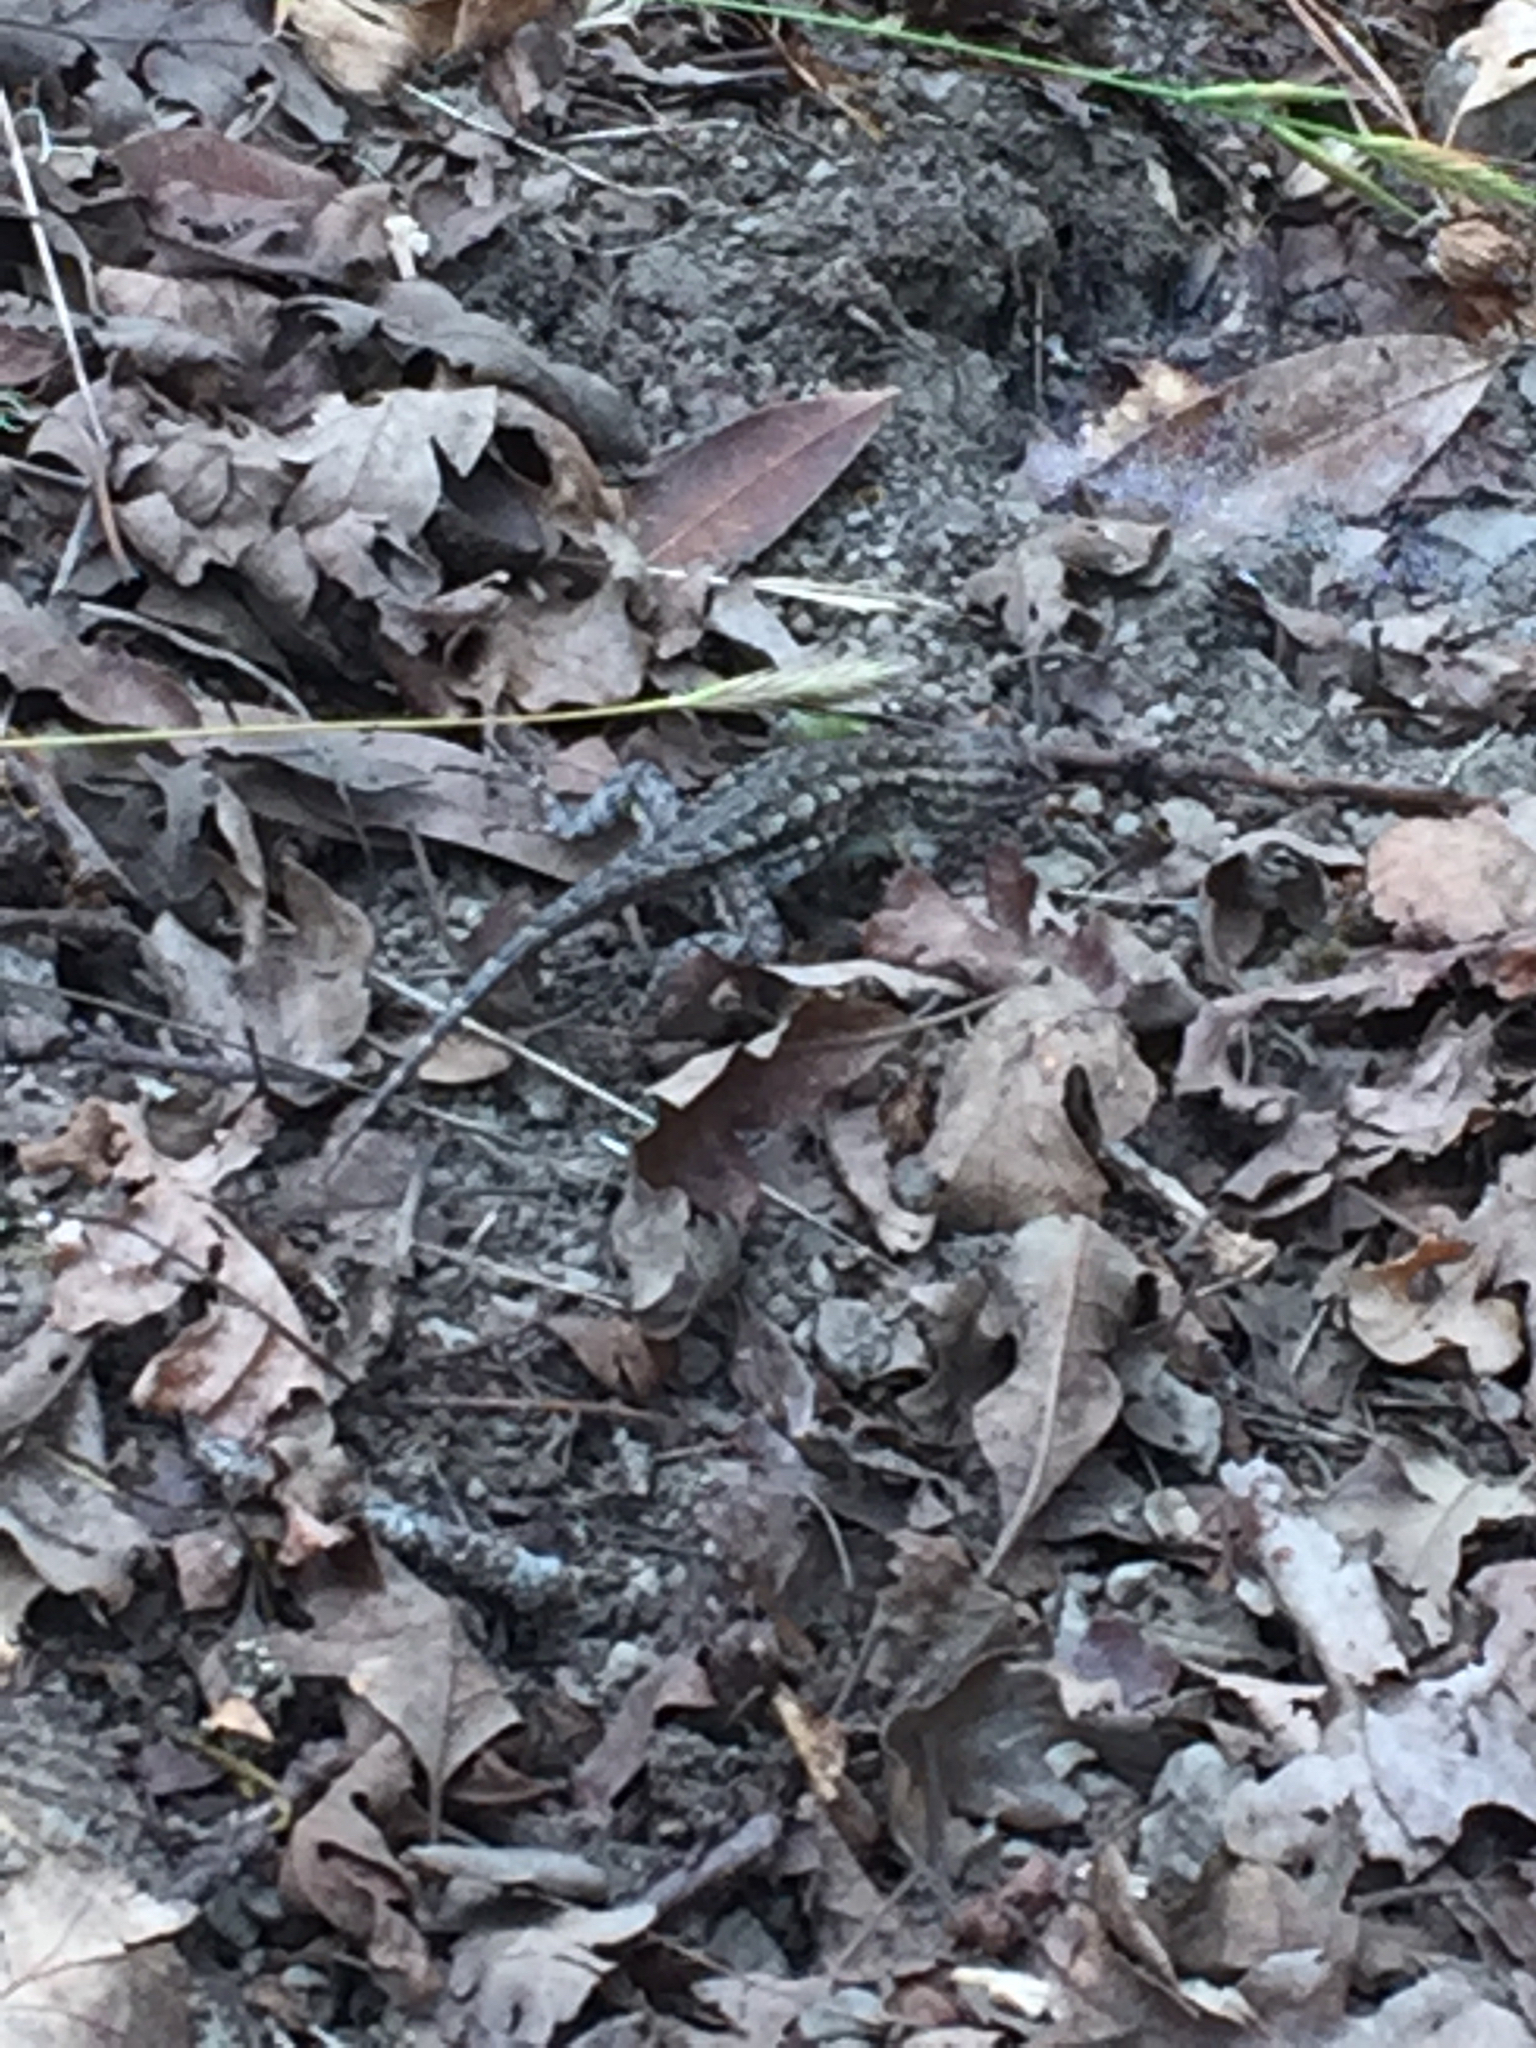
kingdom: Animalia
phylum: Chordata
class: Squamata
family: Phrynosomatidae
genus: Sceloporus
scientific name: Sceloporus occidentalis
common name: Western fence lizard
